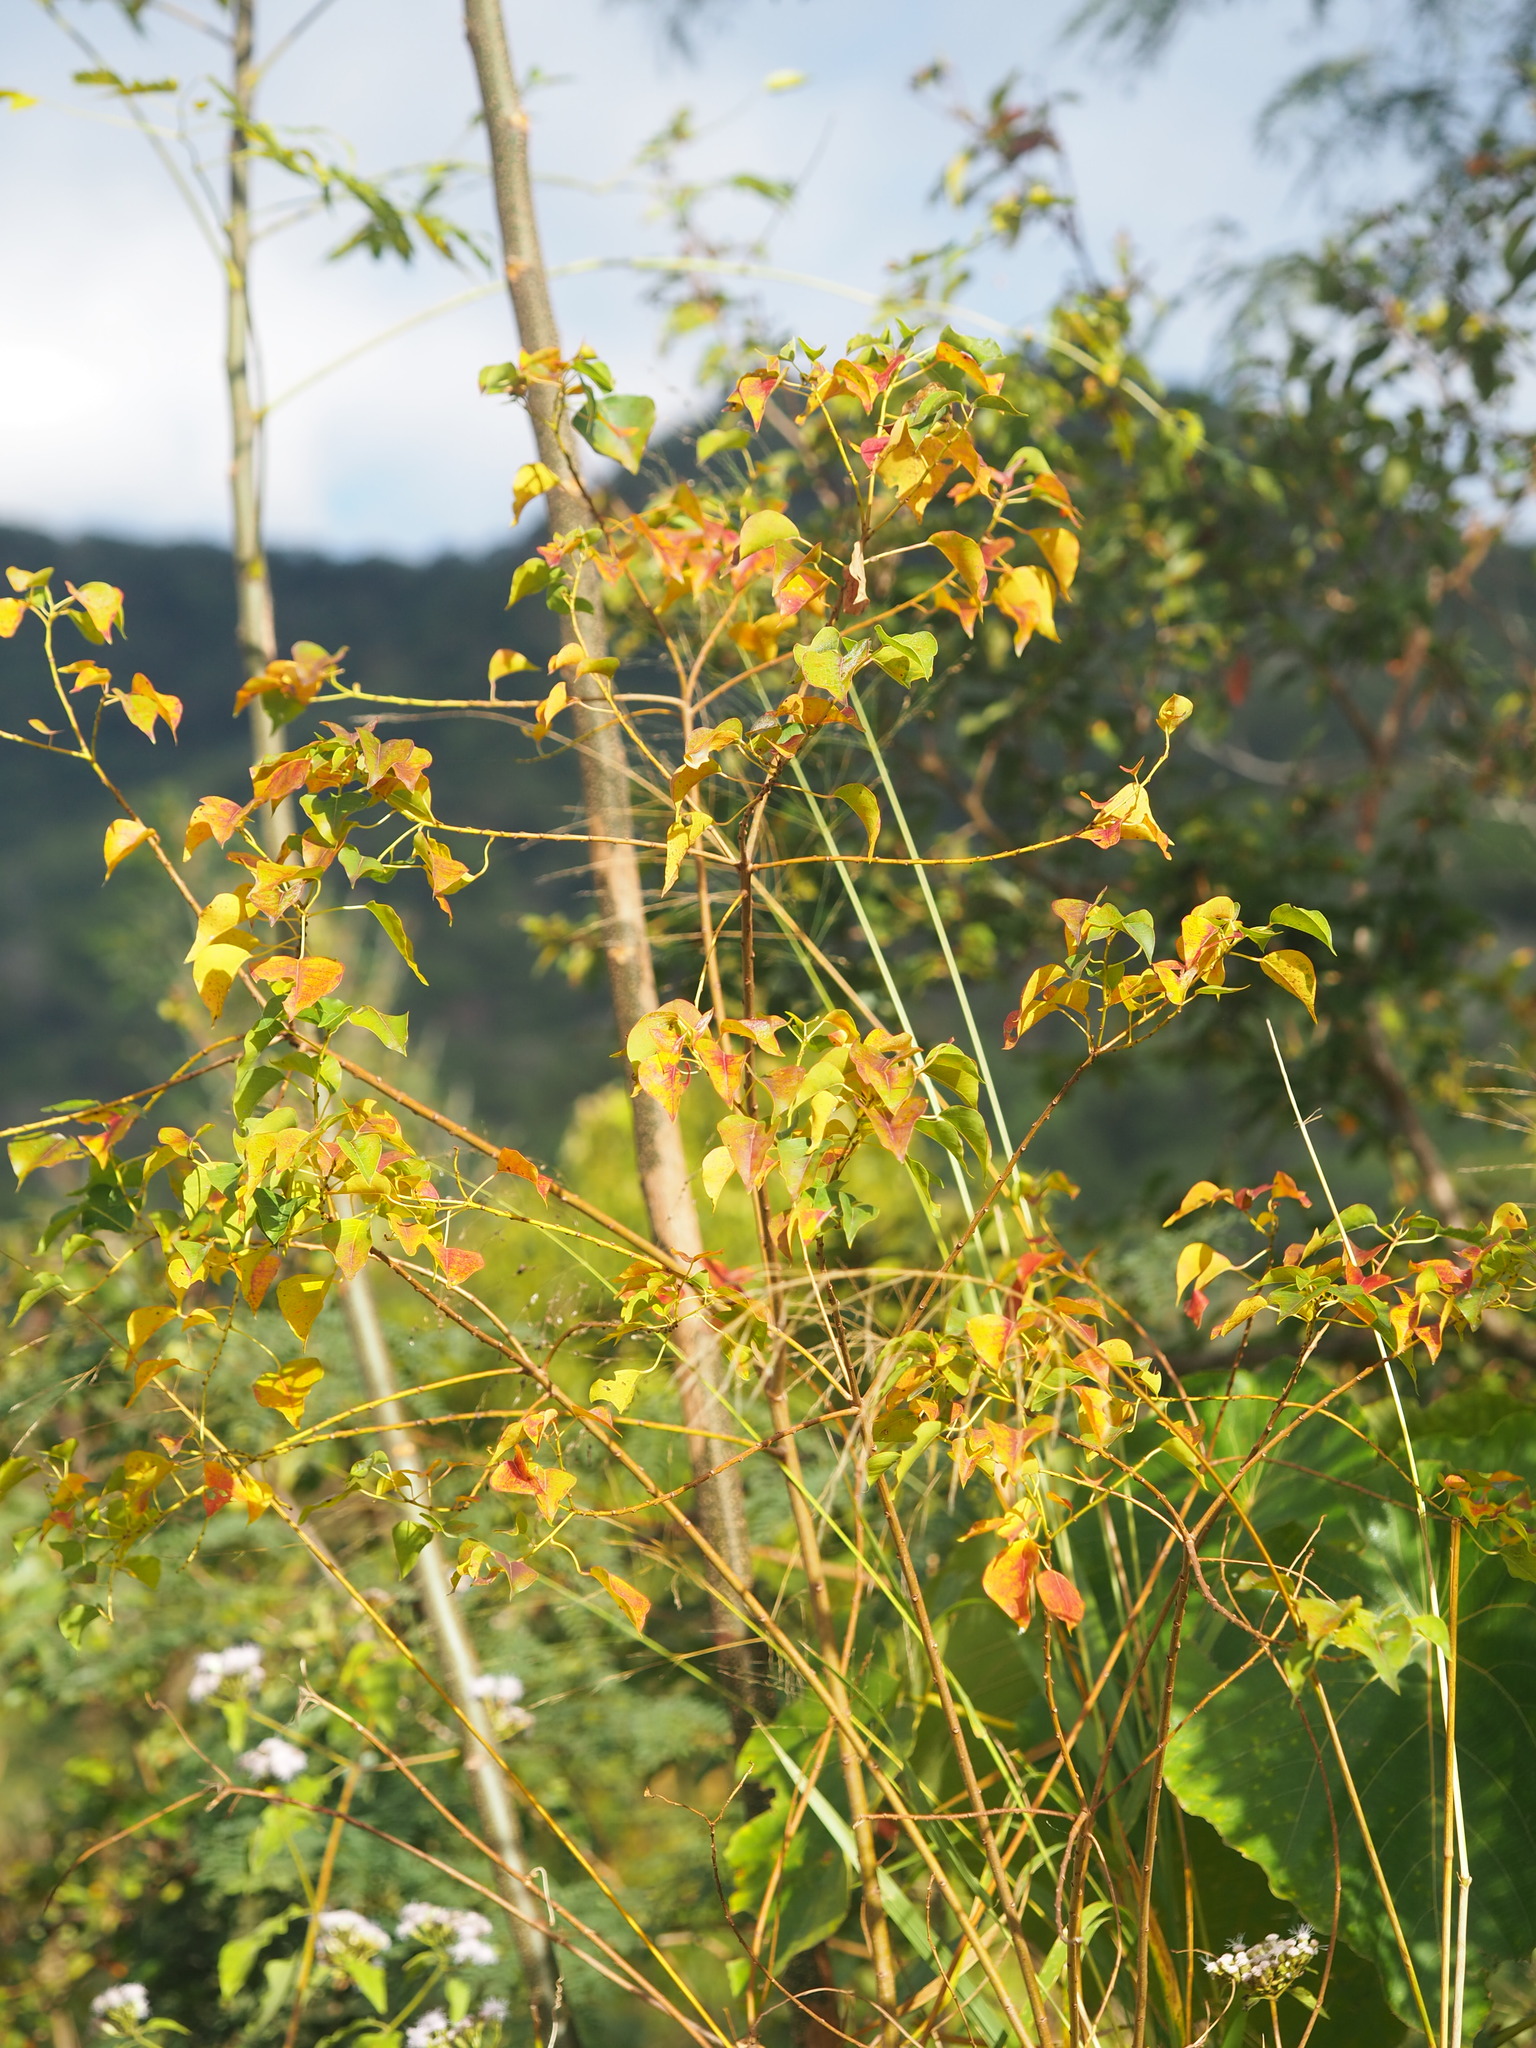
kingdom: Plantae
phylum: Tracheophyta
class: Magnoliopsida
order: Malpighiales
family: Euphorbiaceae
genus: Triadica
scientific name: Triadica sebifera
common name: Chinese tallow
